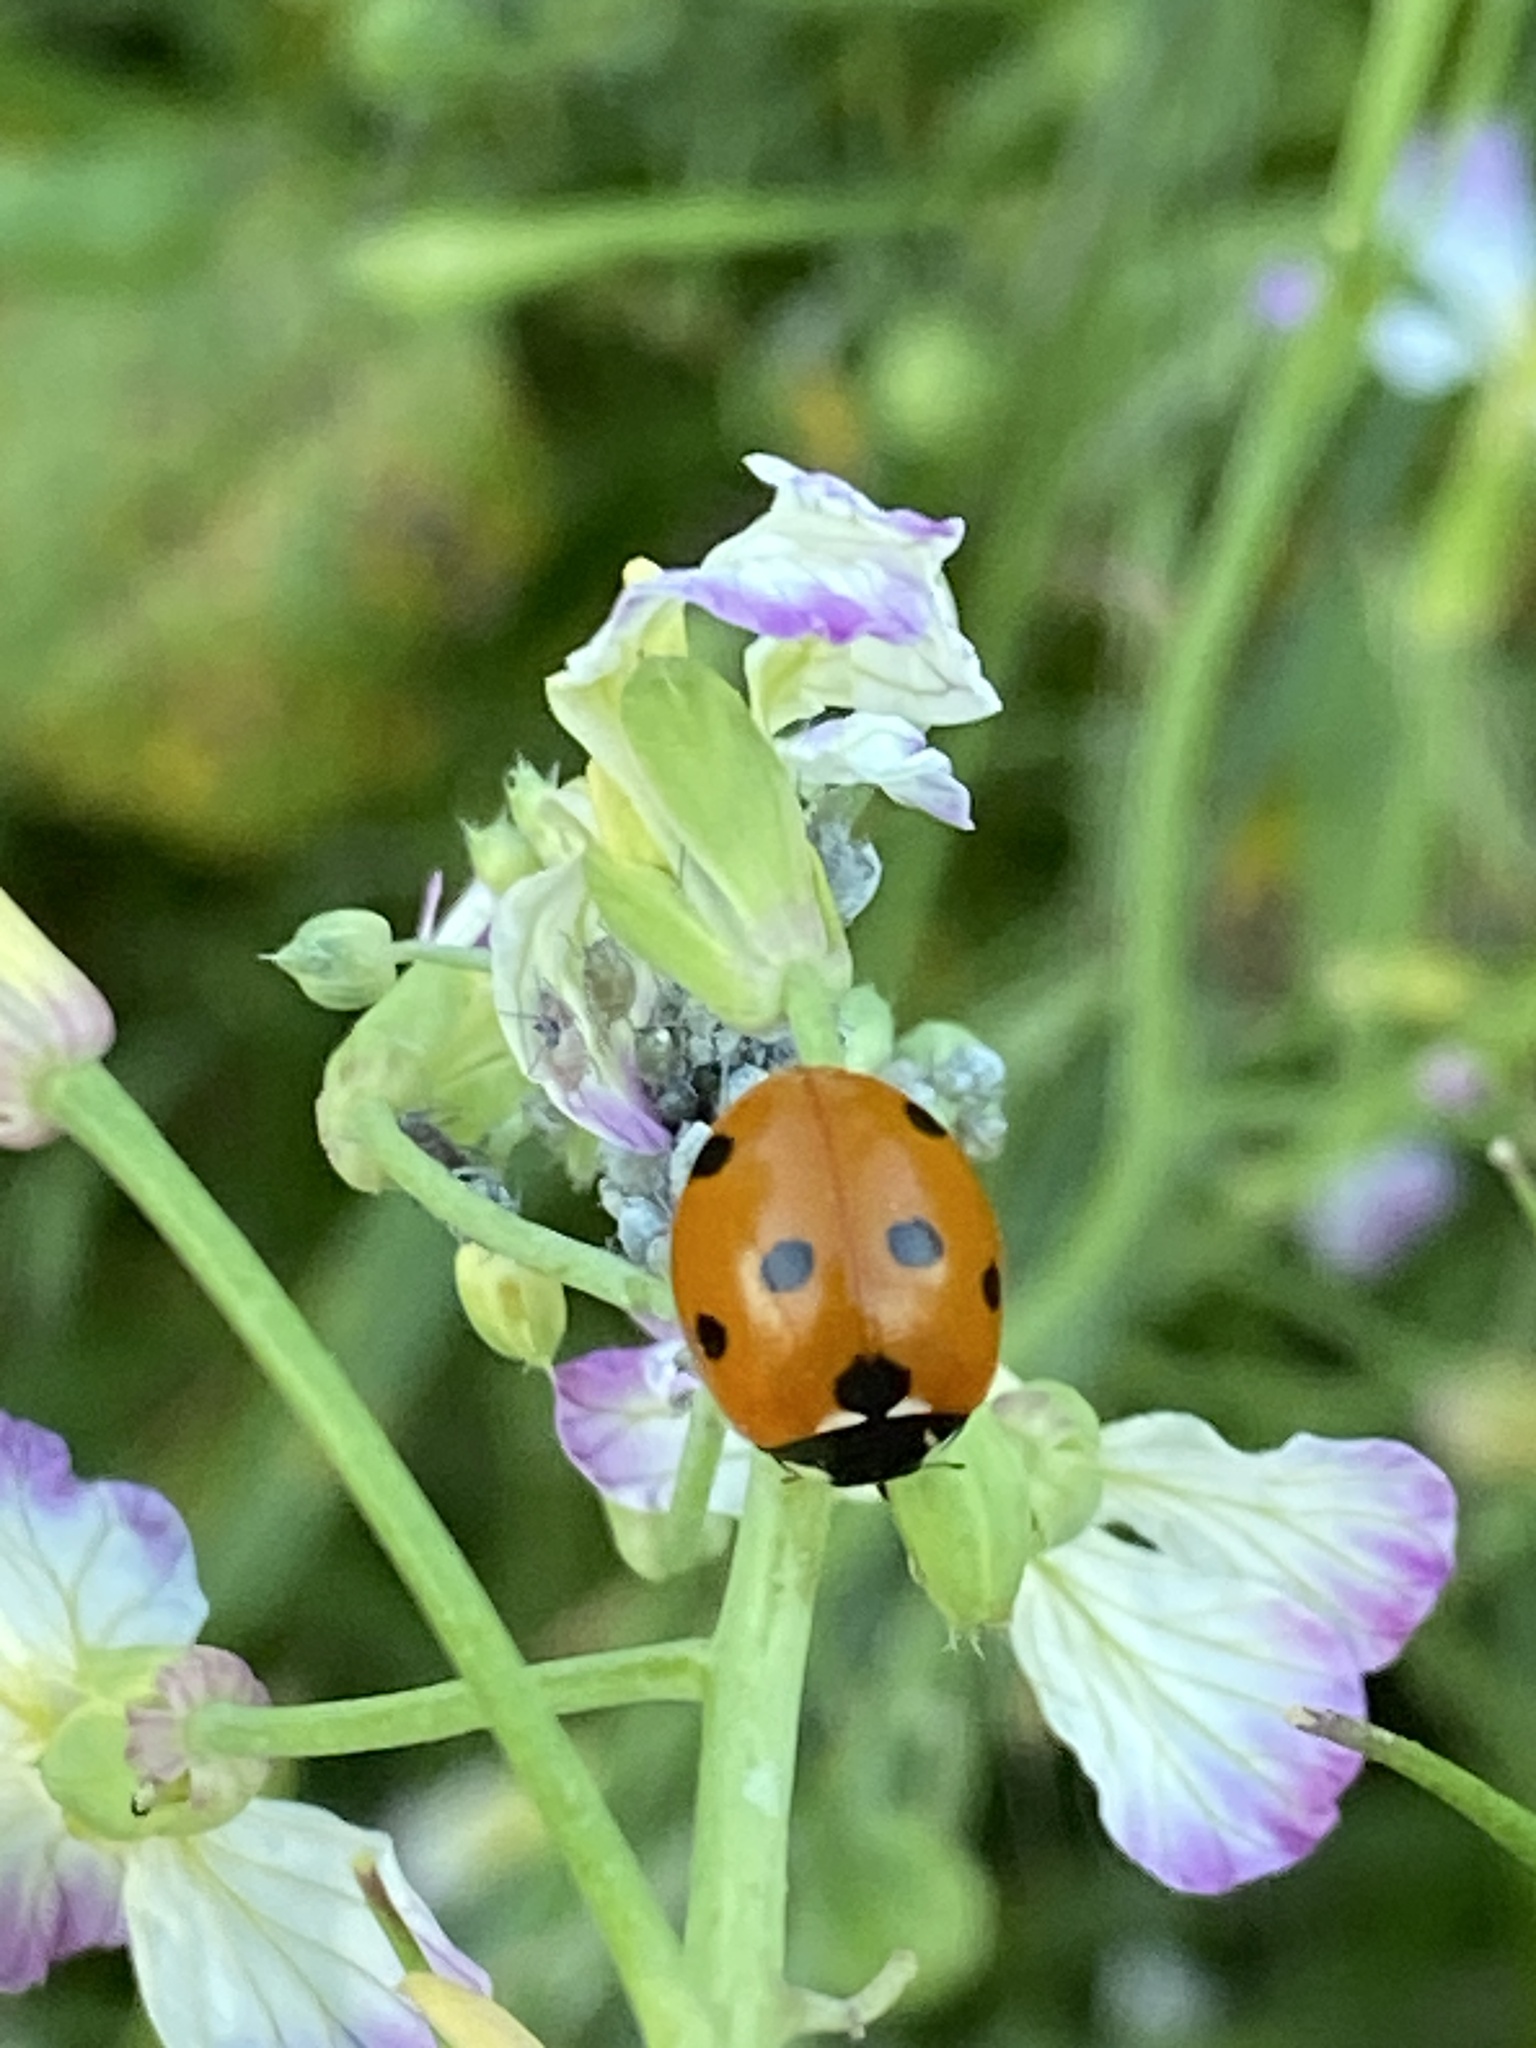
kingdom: Animalia
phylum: Arthropoda
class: Insecta
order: Coleoptera
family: Coccinellidae
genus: Coccinella
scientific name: Coccinella septempunctata
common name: Sevenspotted lady beetle
